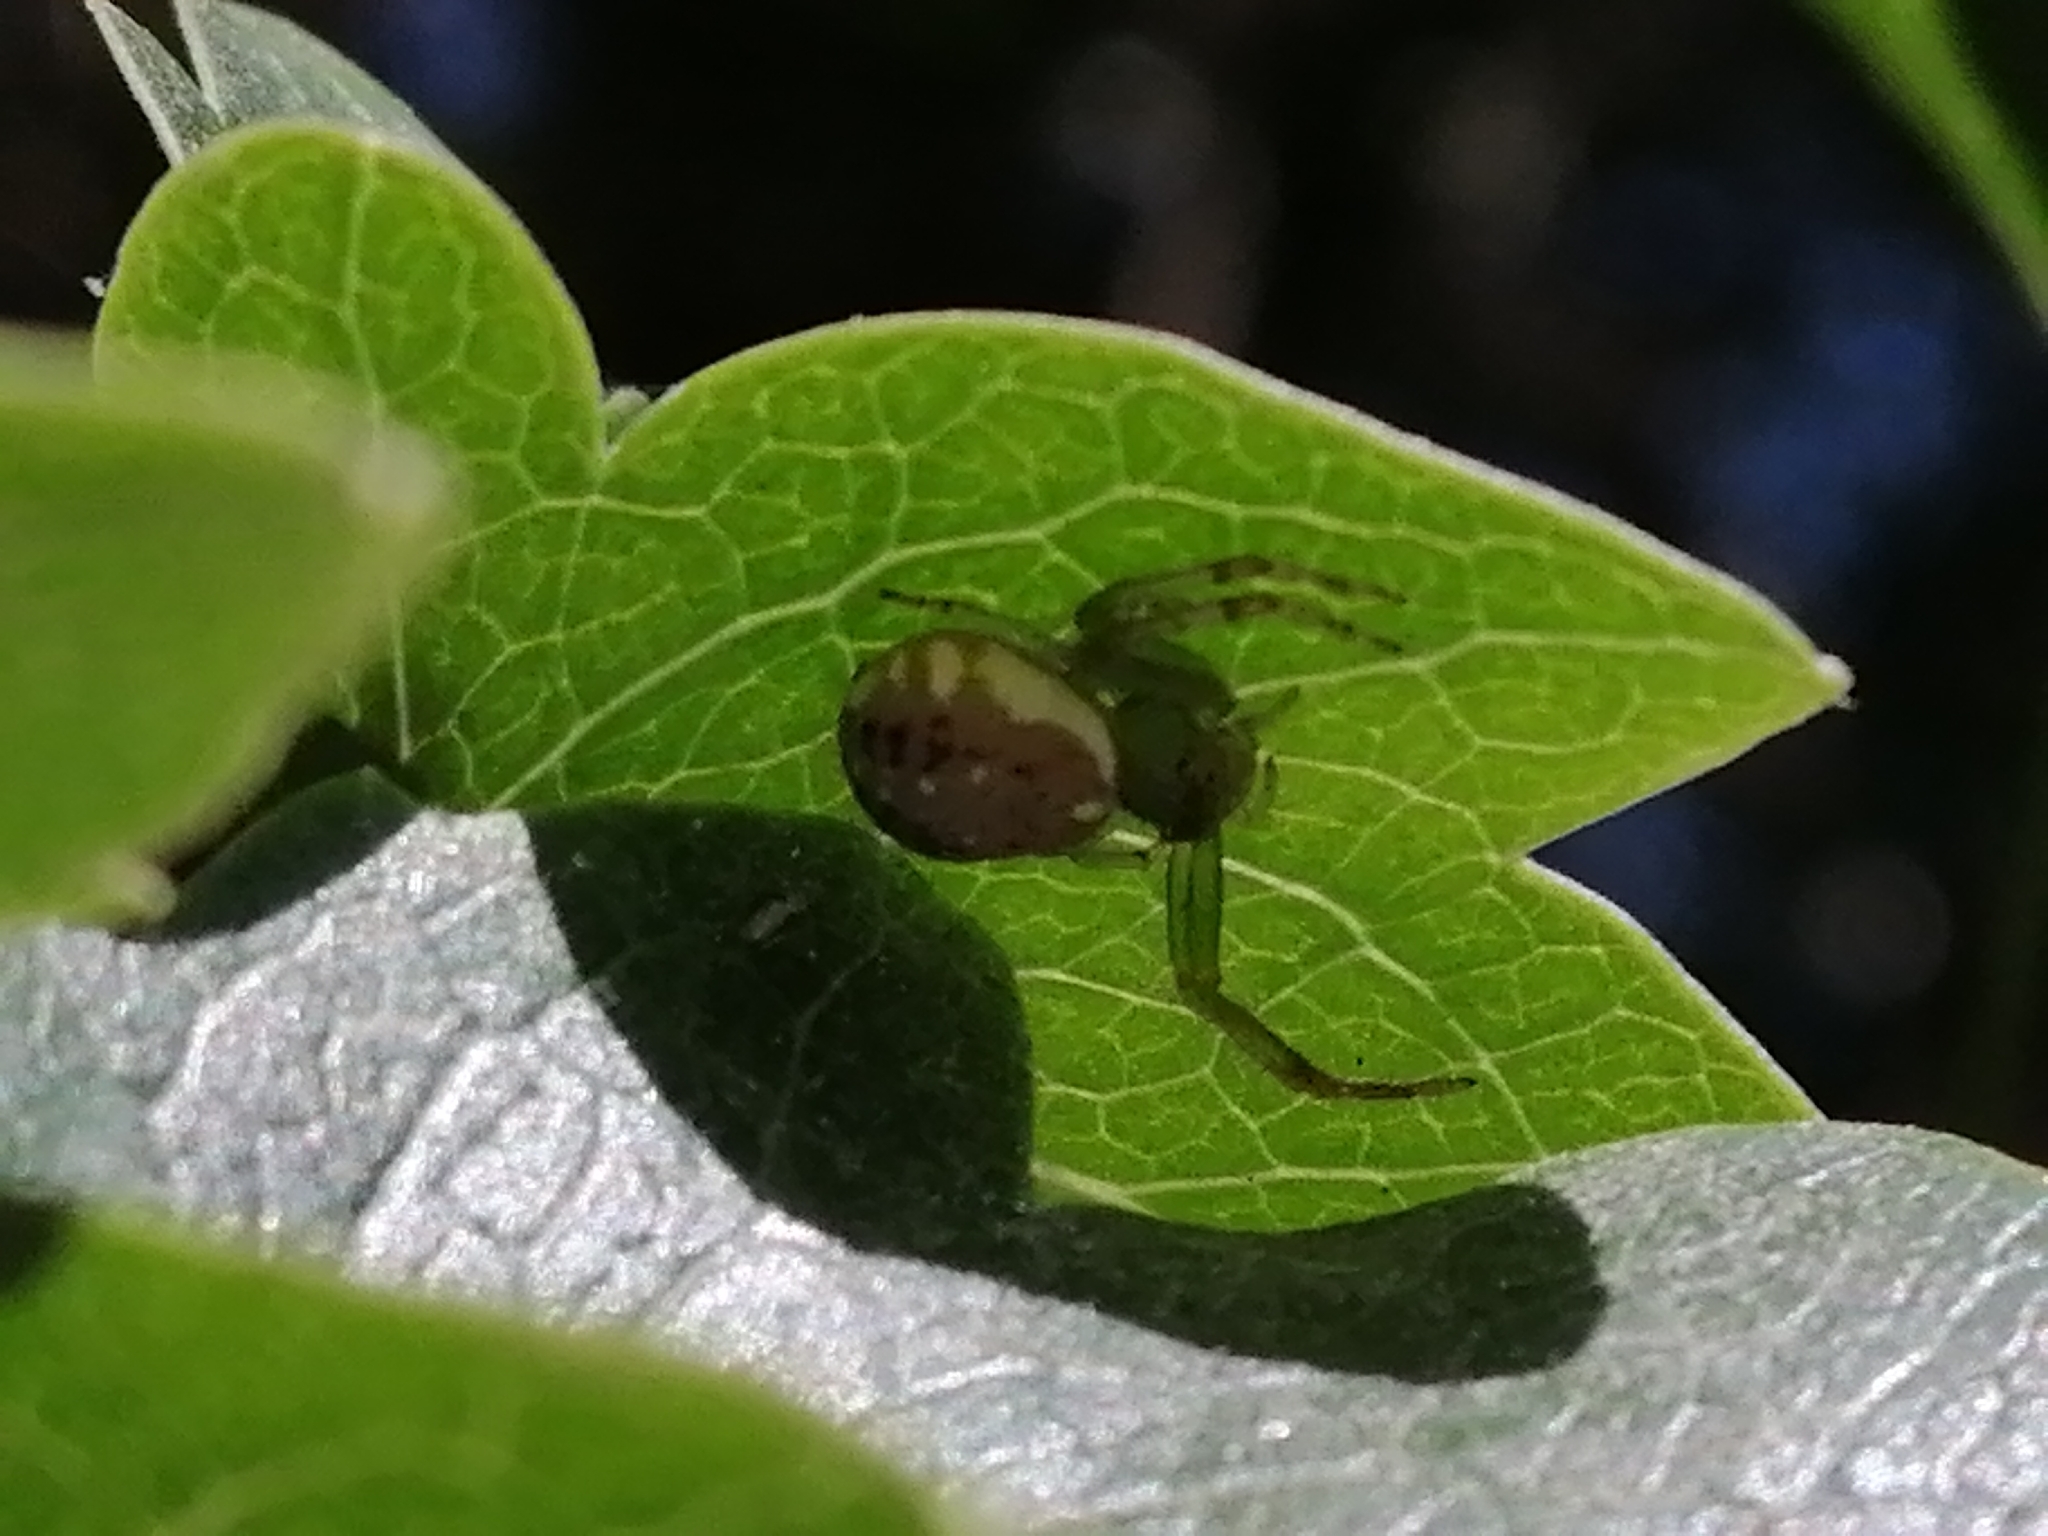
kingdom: Animalia
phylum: Arthropoda
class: Arachnida
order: Araneae
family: Thomisidae
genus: Diaea
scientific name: Diaea ambara
